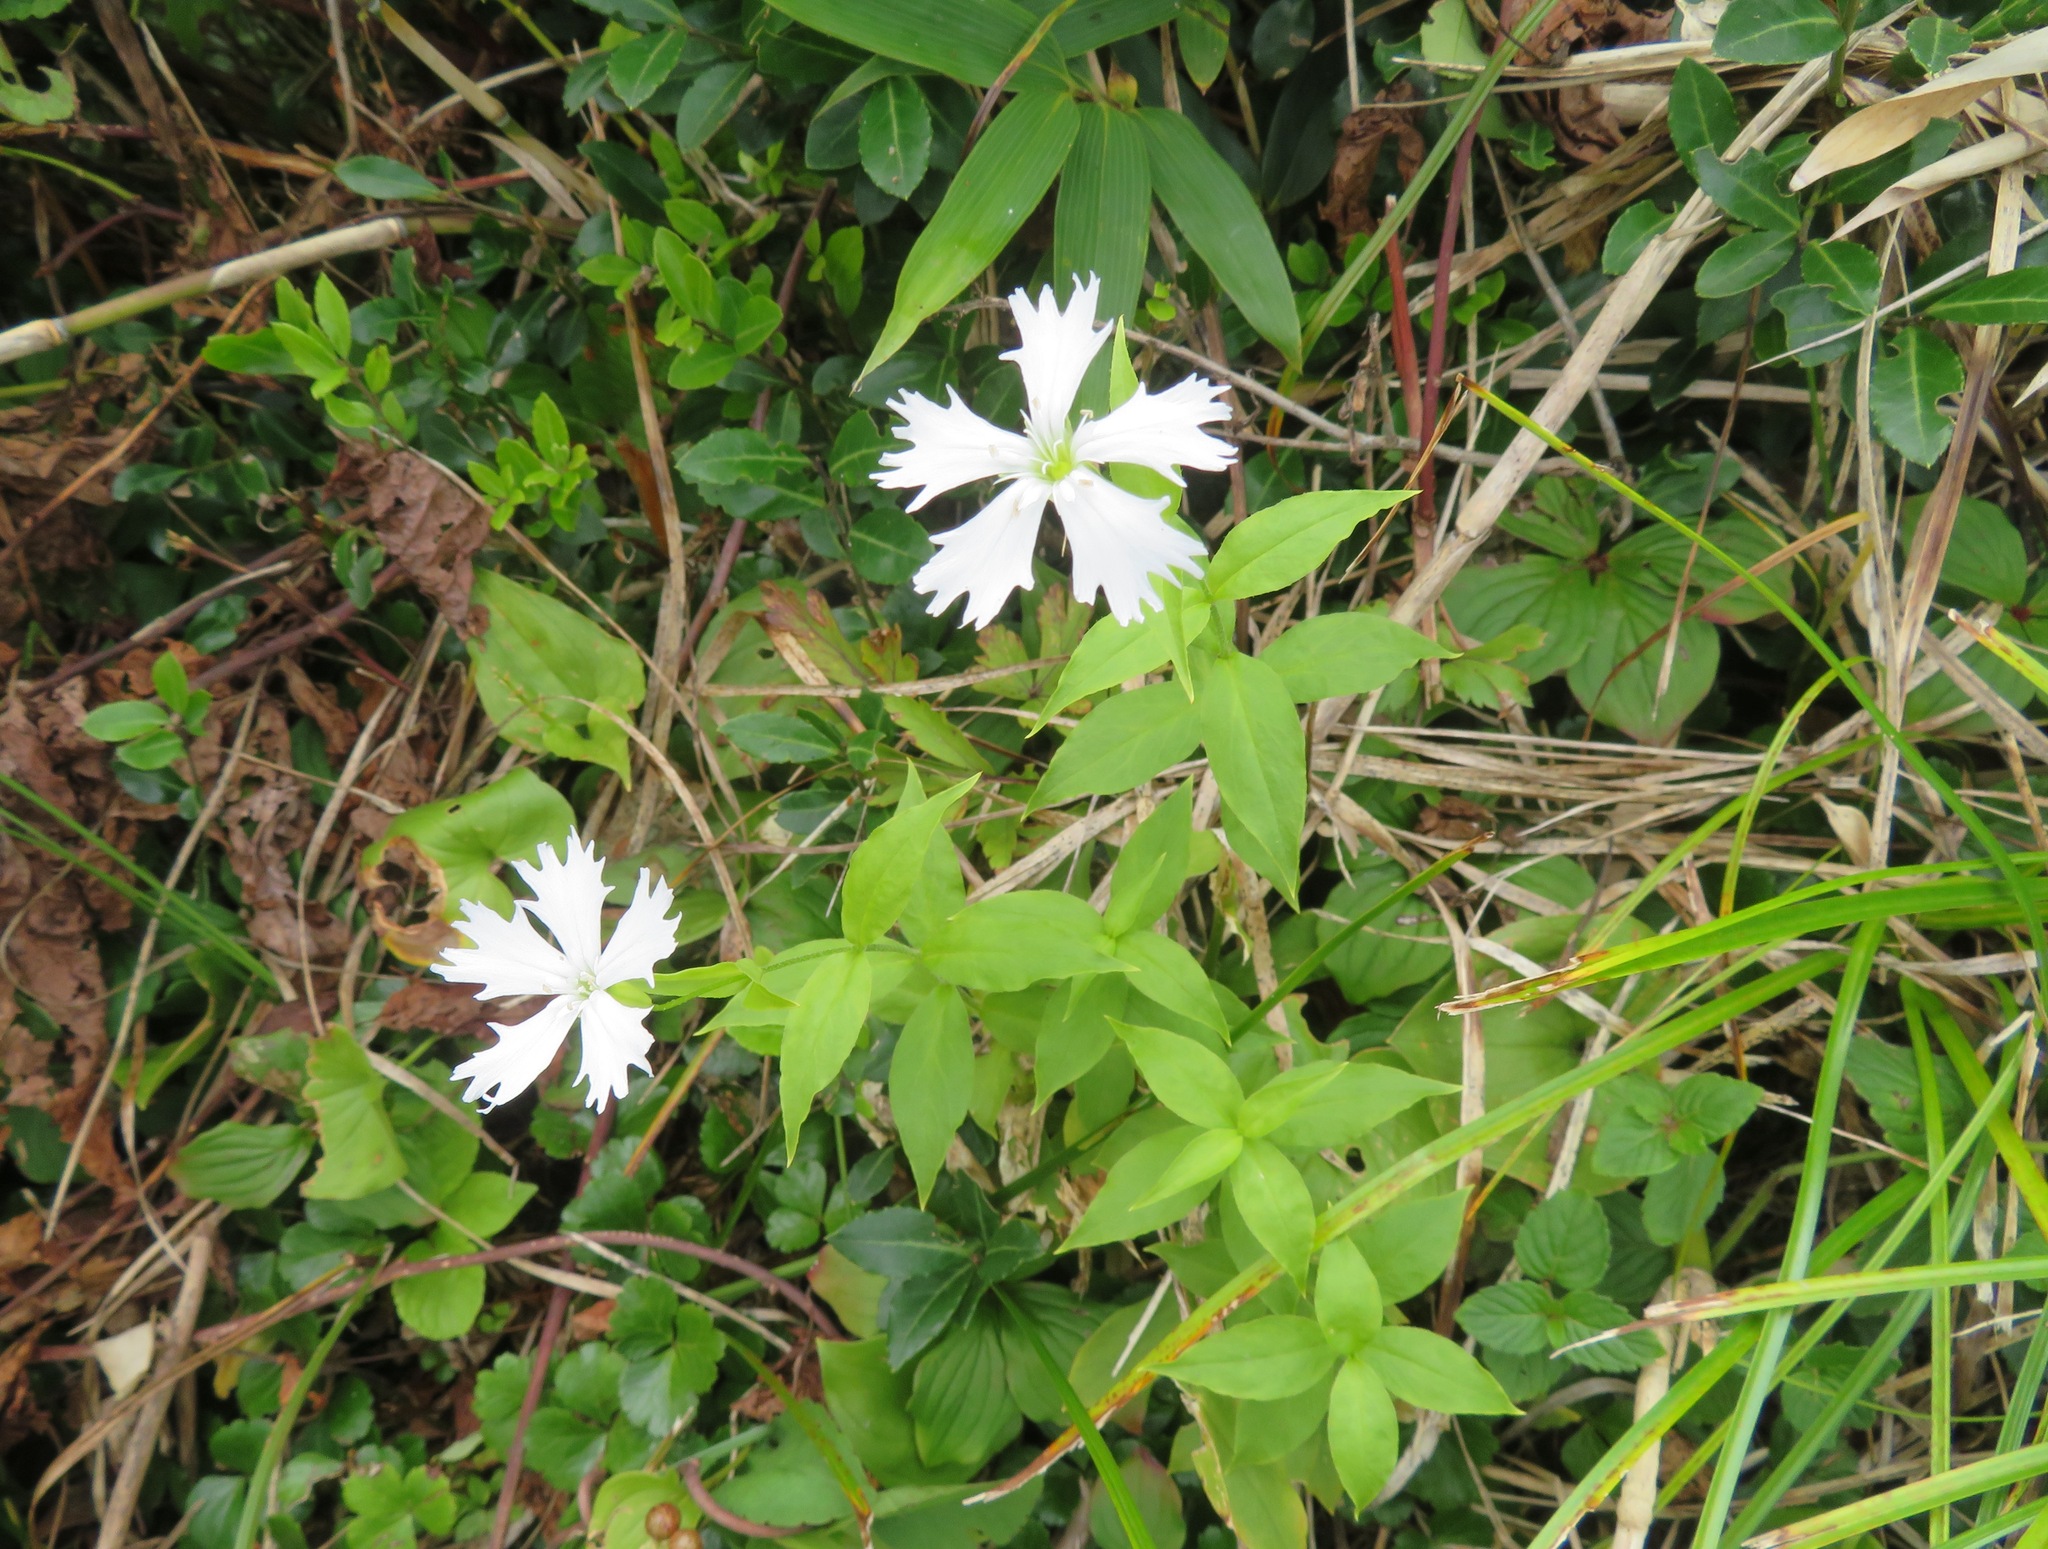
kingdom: Plantae
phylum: Tracheophyta
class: Magnoliopsida
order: Caryophyllales
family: Caryophyllaceae
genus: Silene
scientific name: Silene gracillima
